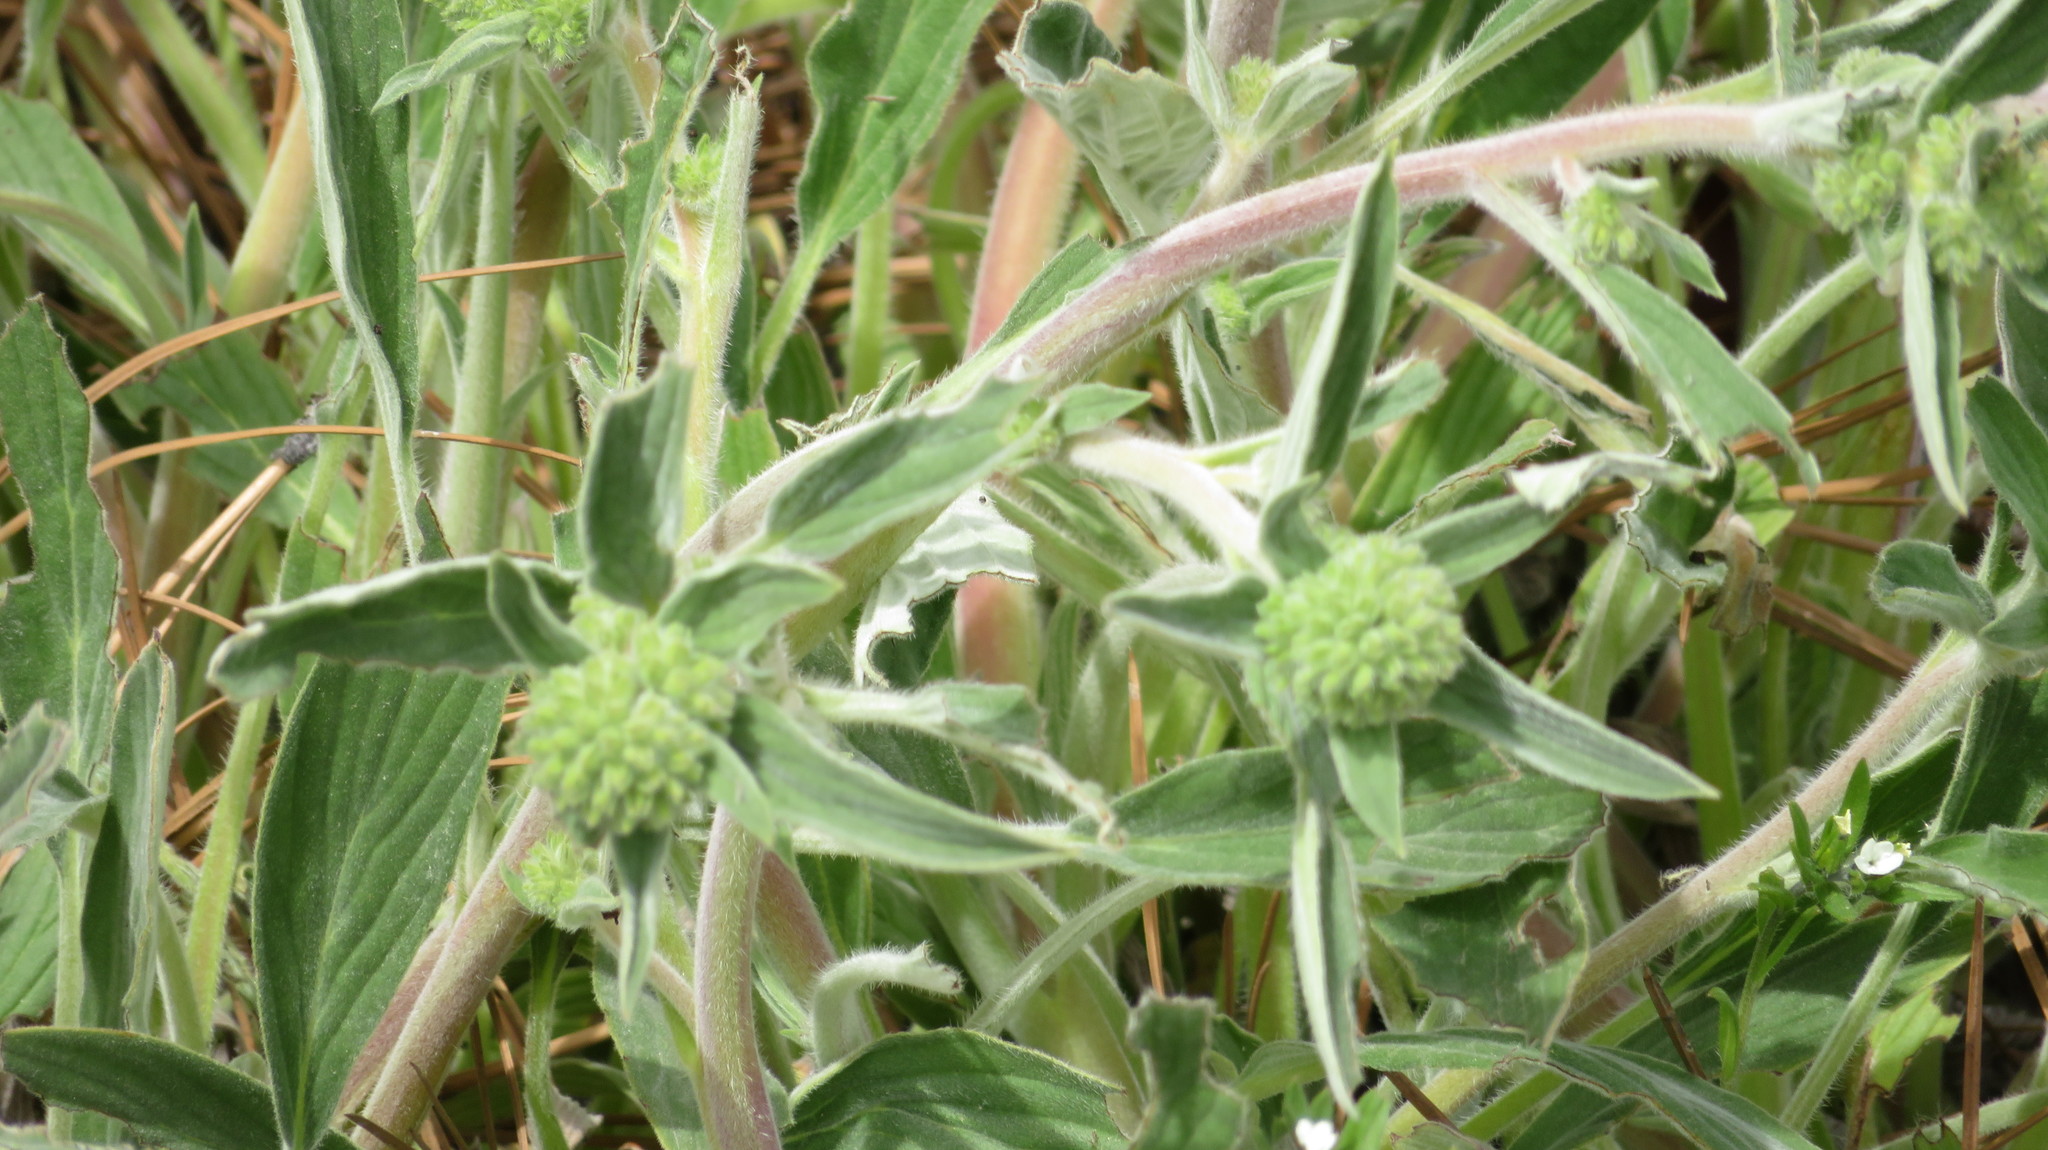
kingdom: Plantae
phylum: Tracheophyta
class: Magnoliopsida
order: Boraginales
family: Hydrophyllaceae
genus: Phacelia
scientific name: Phacelia hastata
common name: Silver-leaved phacelia
